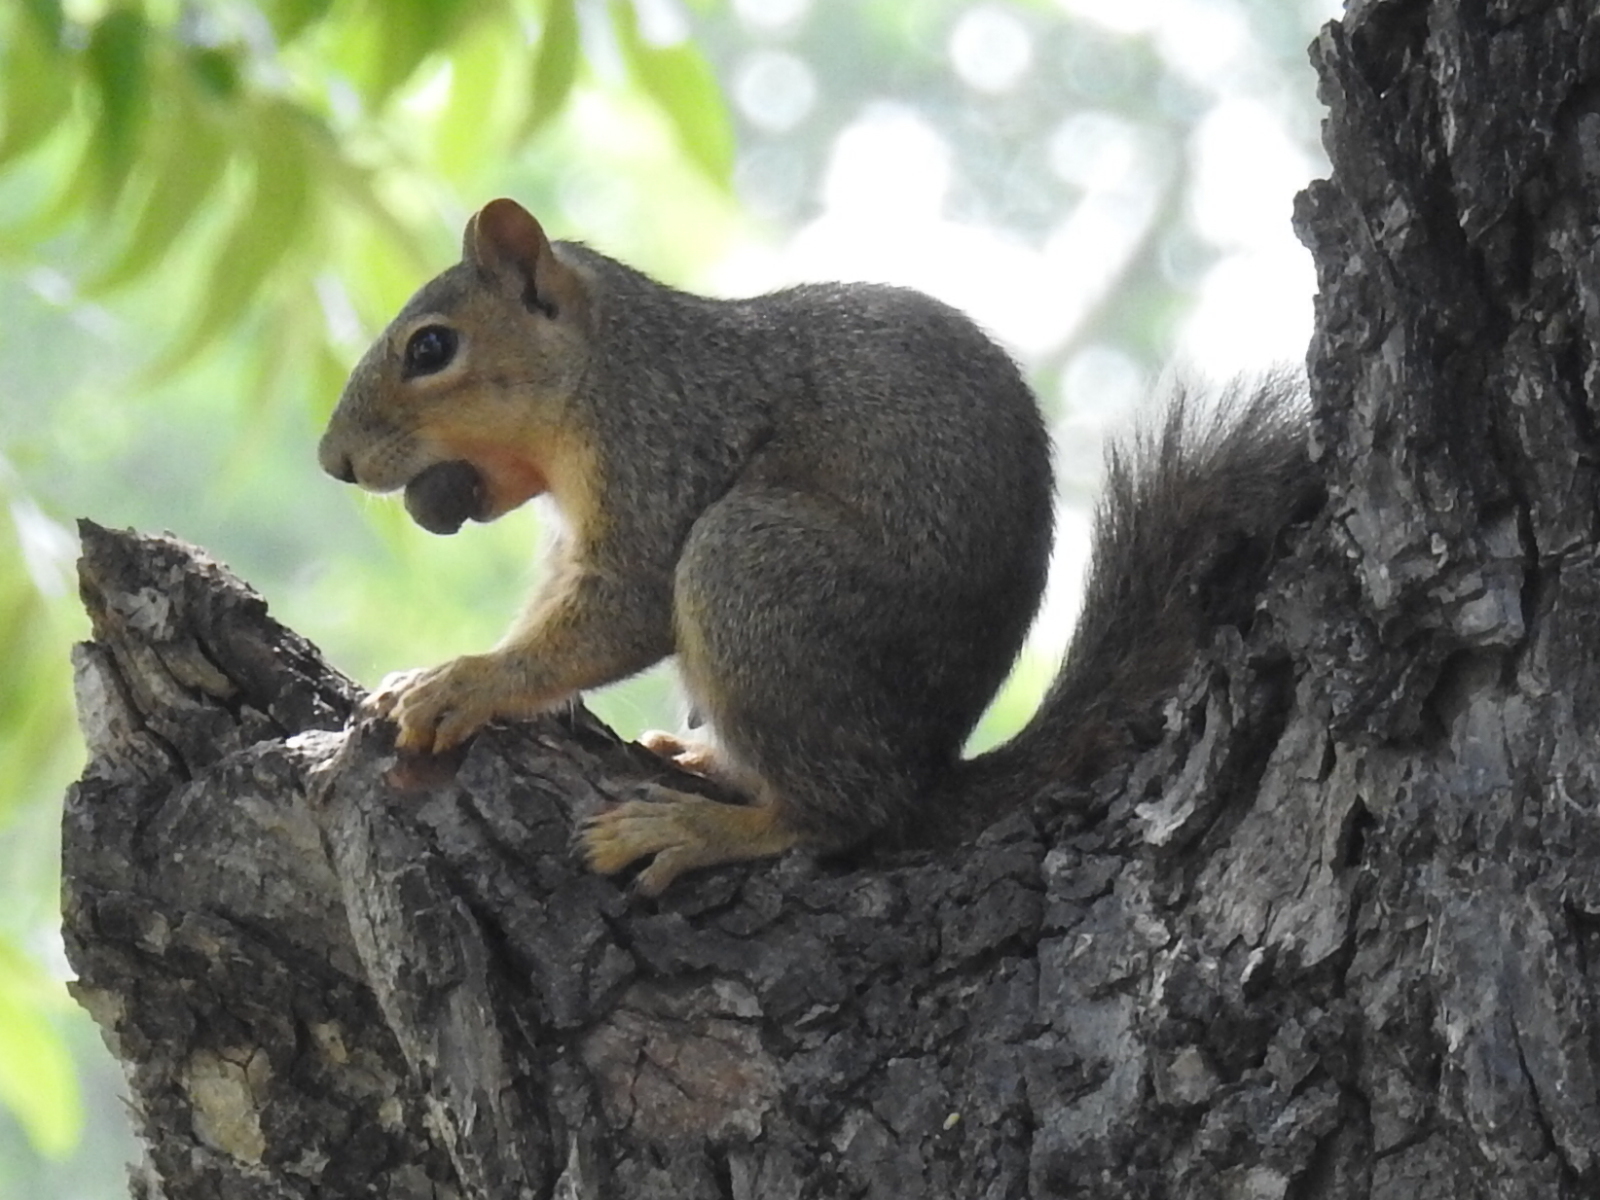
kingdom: Animalia
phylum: Chordata
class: Mammalia
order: Rodentia
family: Sciuridae
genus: Sciurus
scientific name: Sciurus niger
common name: Fox squirrel
